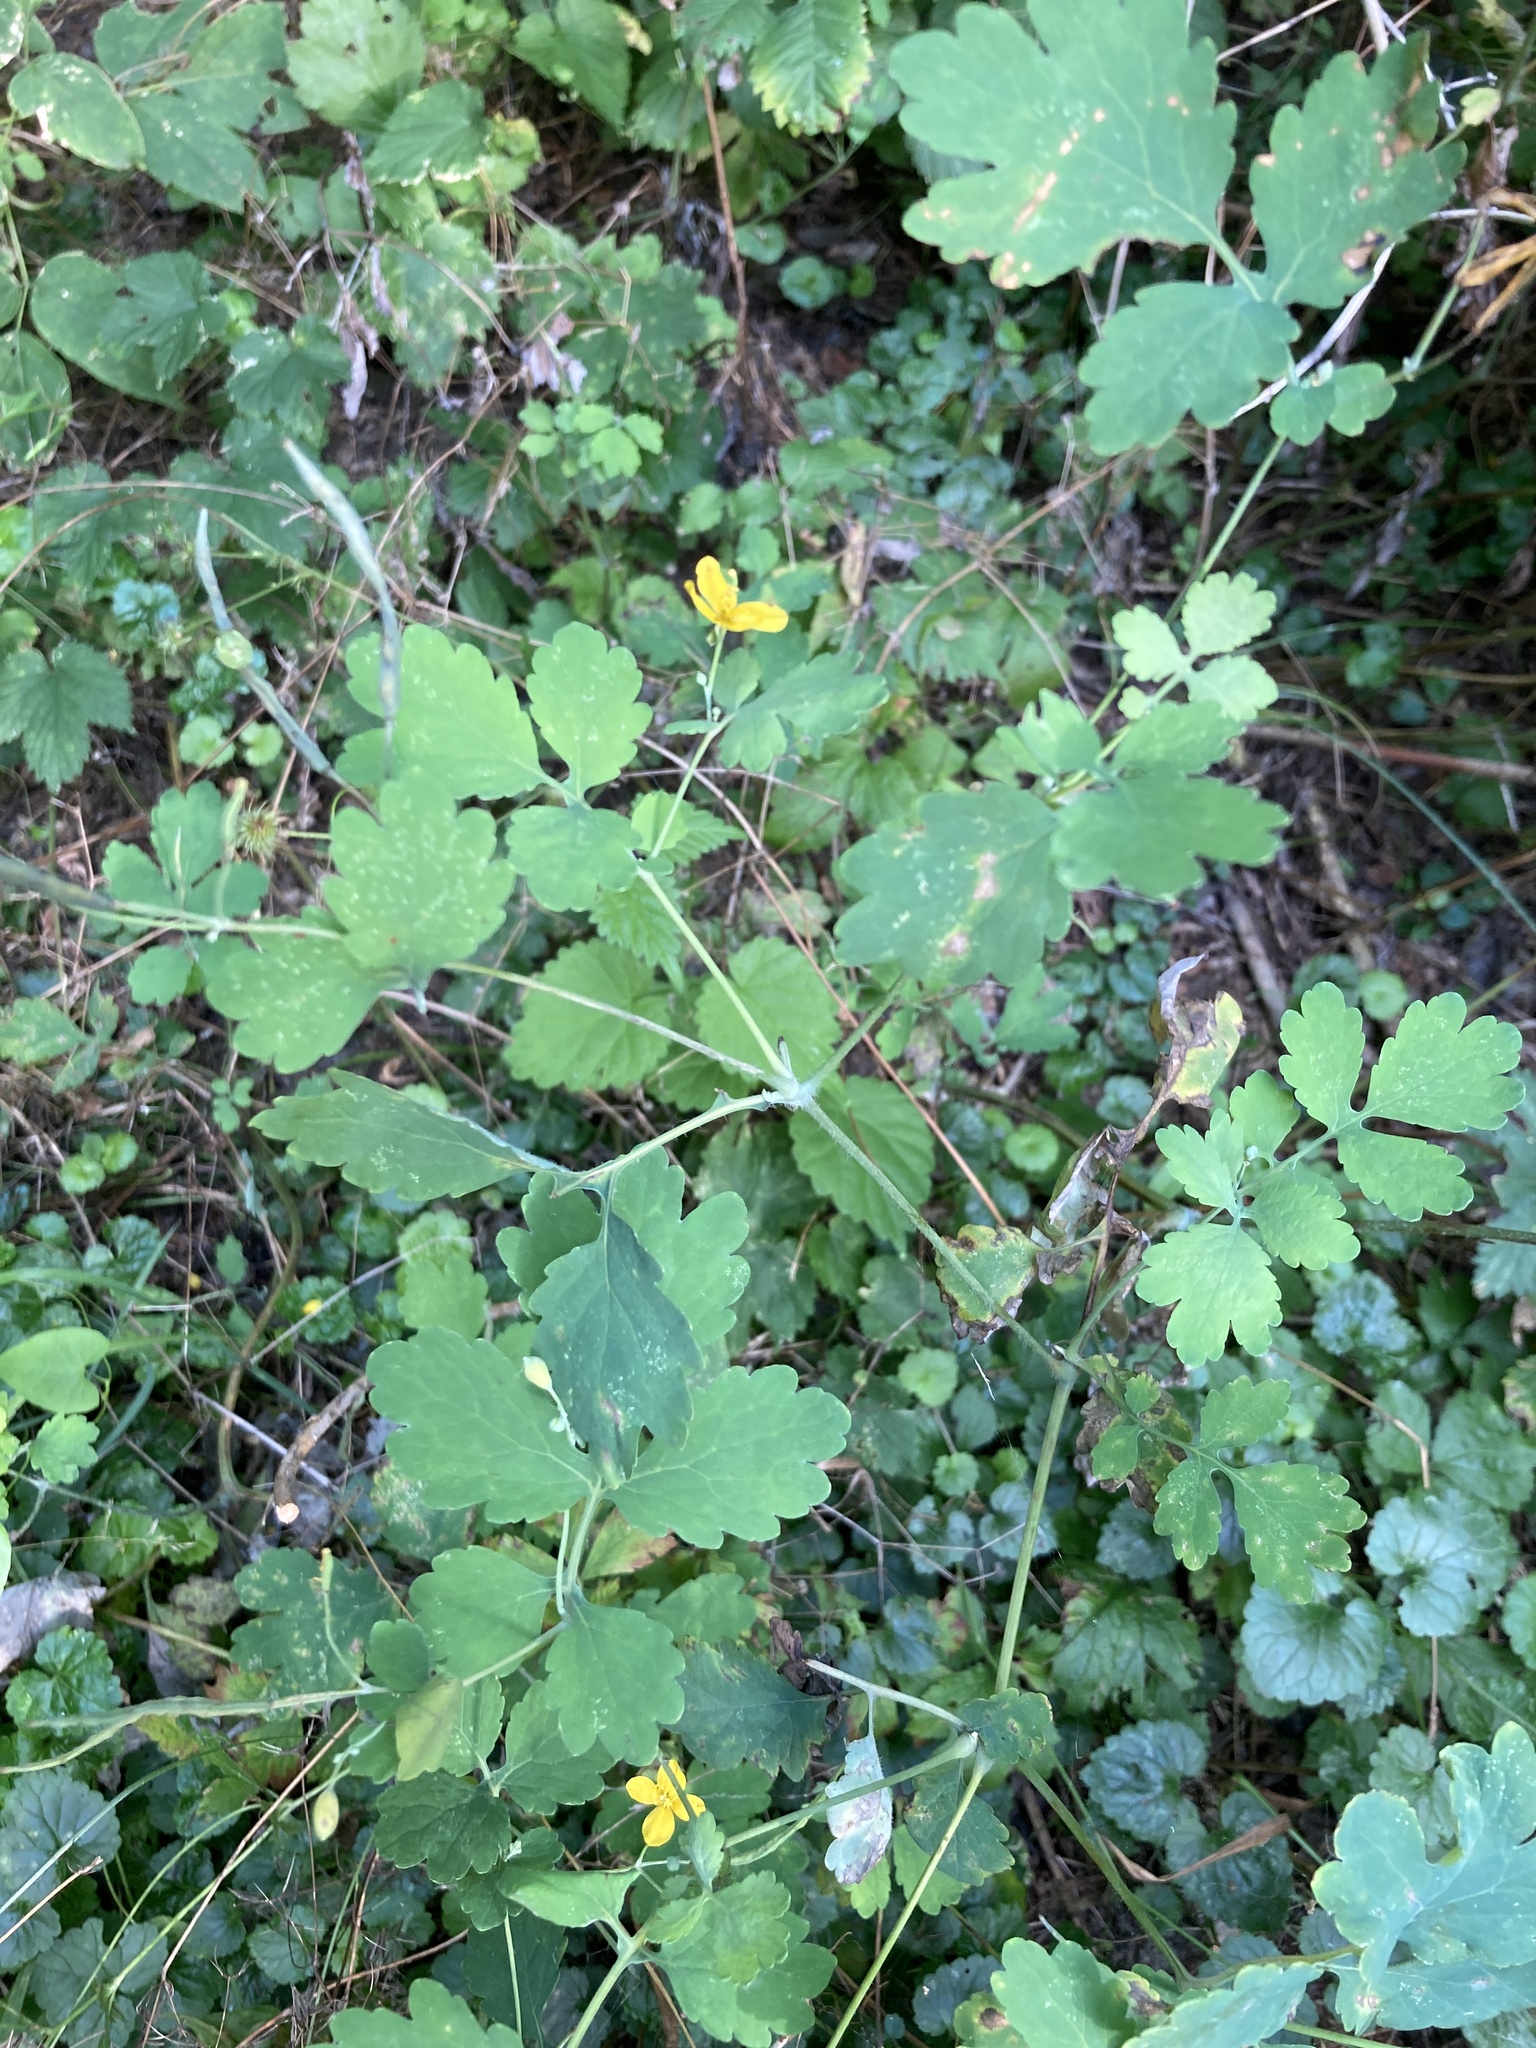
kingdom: Plantae
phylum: Tracheophyta
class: Magnoliopsida
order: Ranunculales
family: Papaveraceae
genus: Chelidonium
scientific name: Chelidonium majus
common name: Greater celandine
